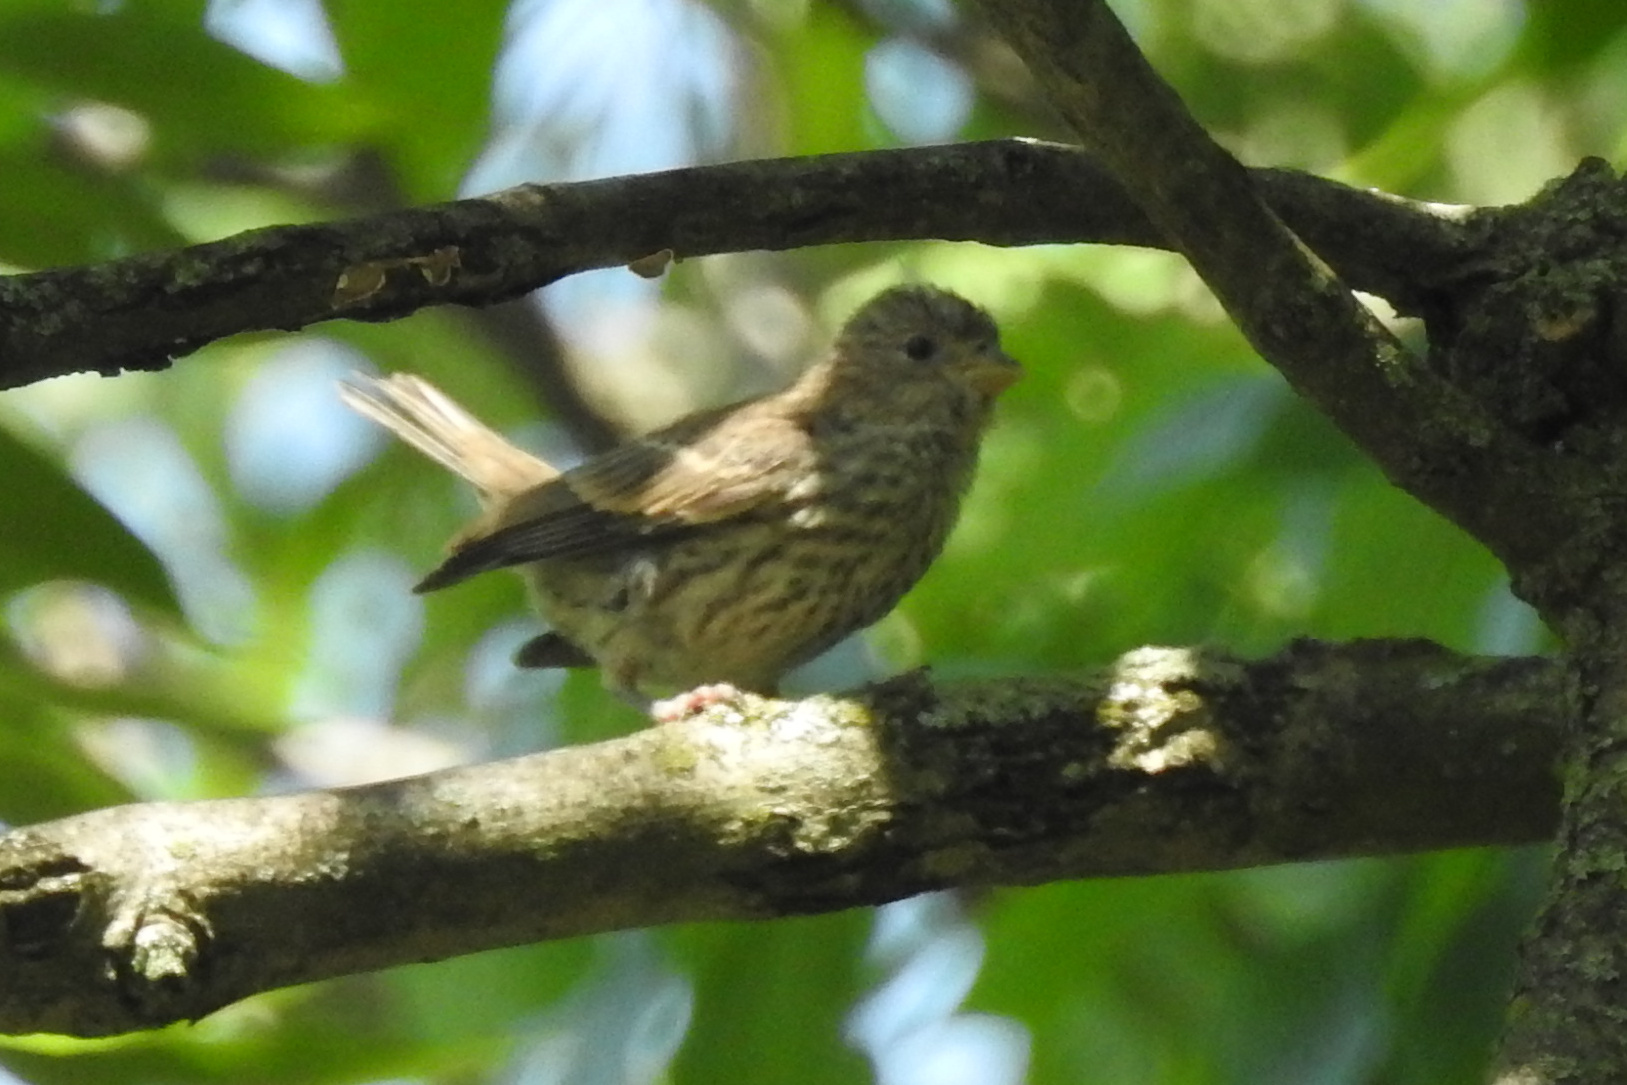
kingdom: Animalia
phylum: Chordata
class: Aves
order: Passeriformes
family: Fringillidae
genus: Haemorhous
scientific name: Haemorhous mexicanus
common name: House finch
